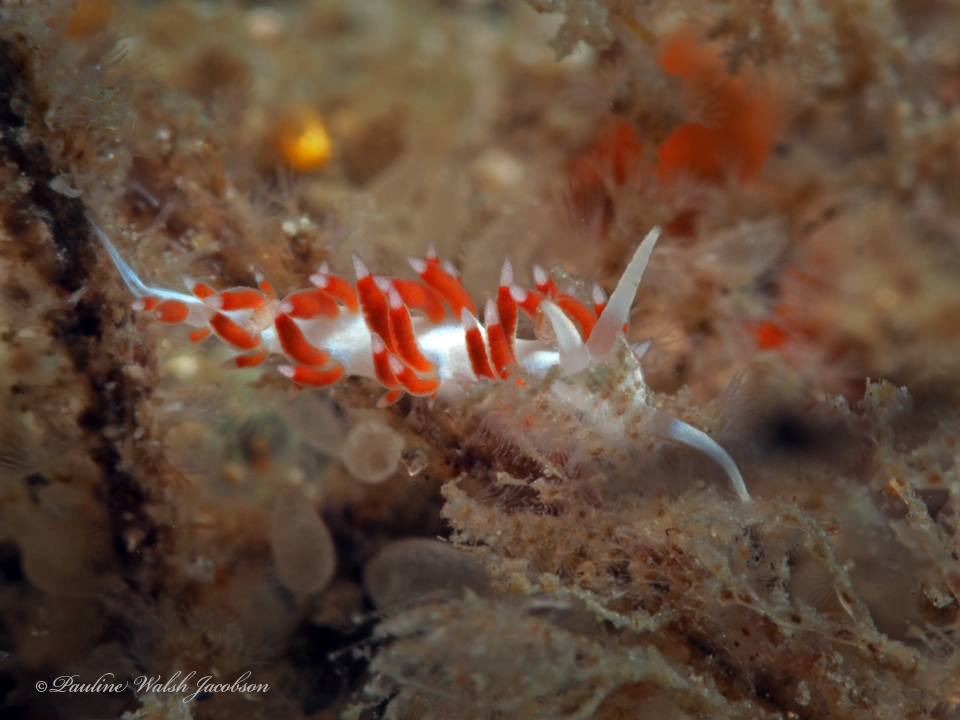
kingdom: Animalia
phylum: Mollusca
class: Gastropoda
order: Nudibranchia
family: Flabellinidae
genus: Flabellina
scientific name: Flabellina dushia
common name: Dushia flabellina
